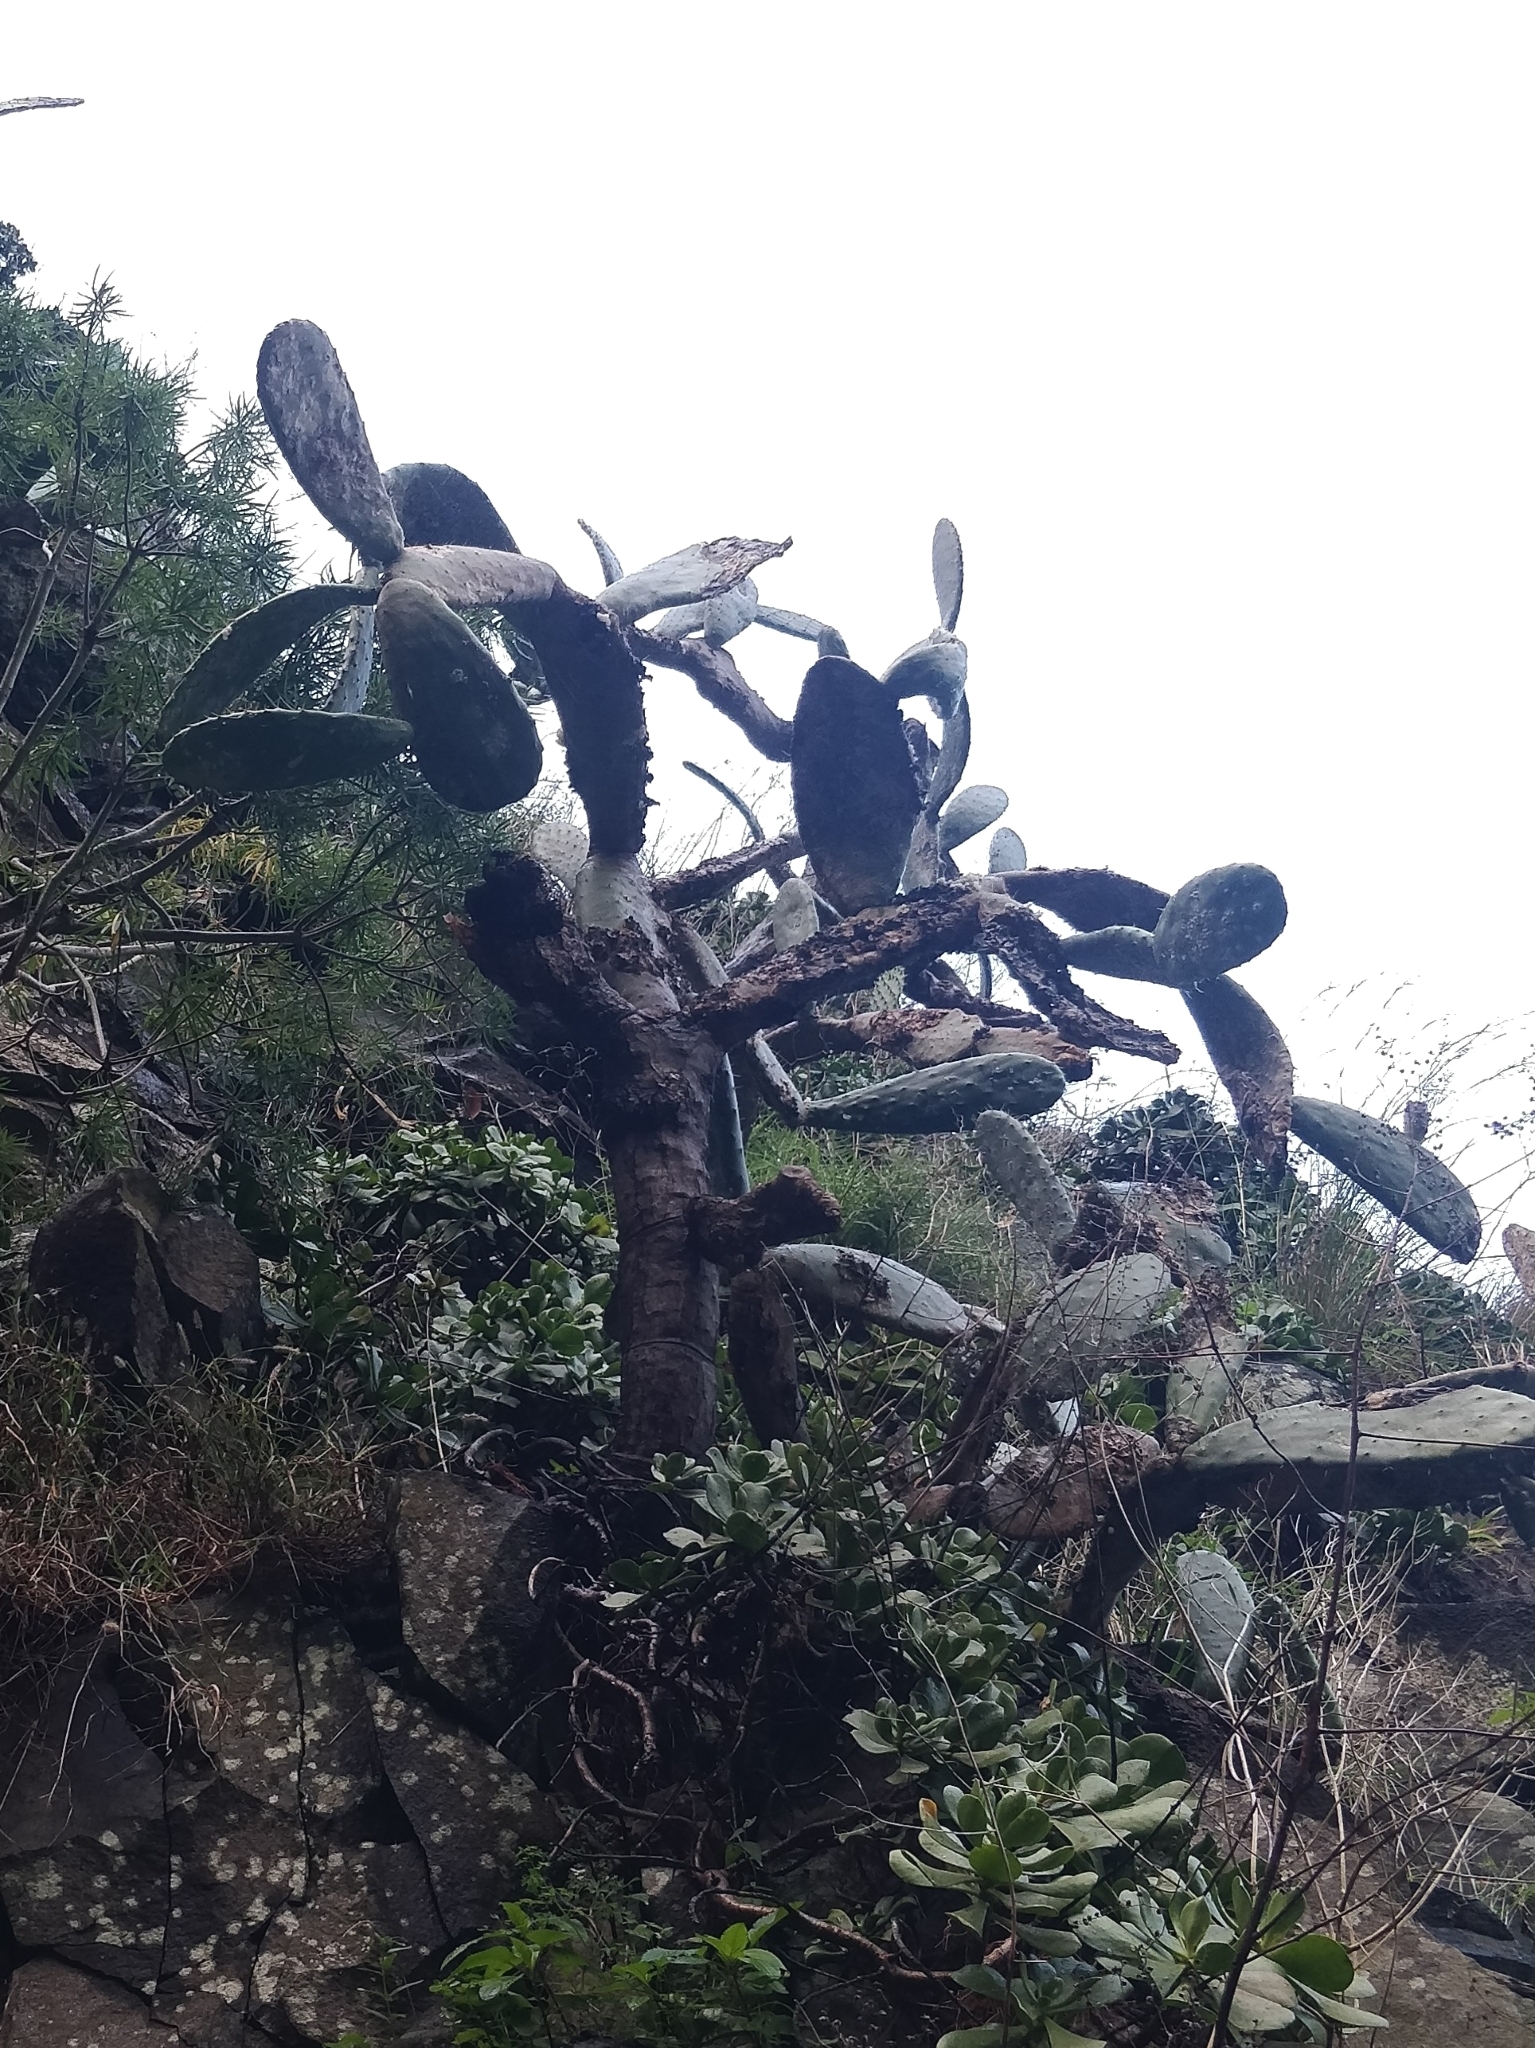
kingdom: Plantae
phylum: Tracheophyta
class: Magnoliopsida
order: Caryophyllales
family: Cactaceae
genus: Opuntia
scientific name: Opuntia ficus-indica
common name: Barbary fig
